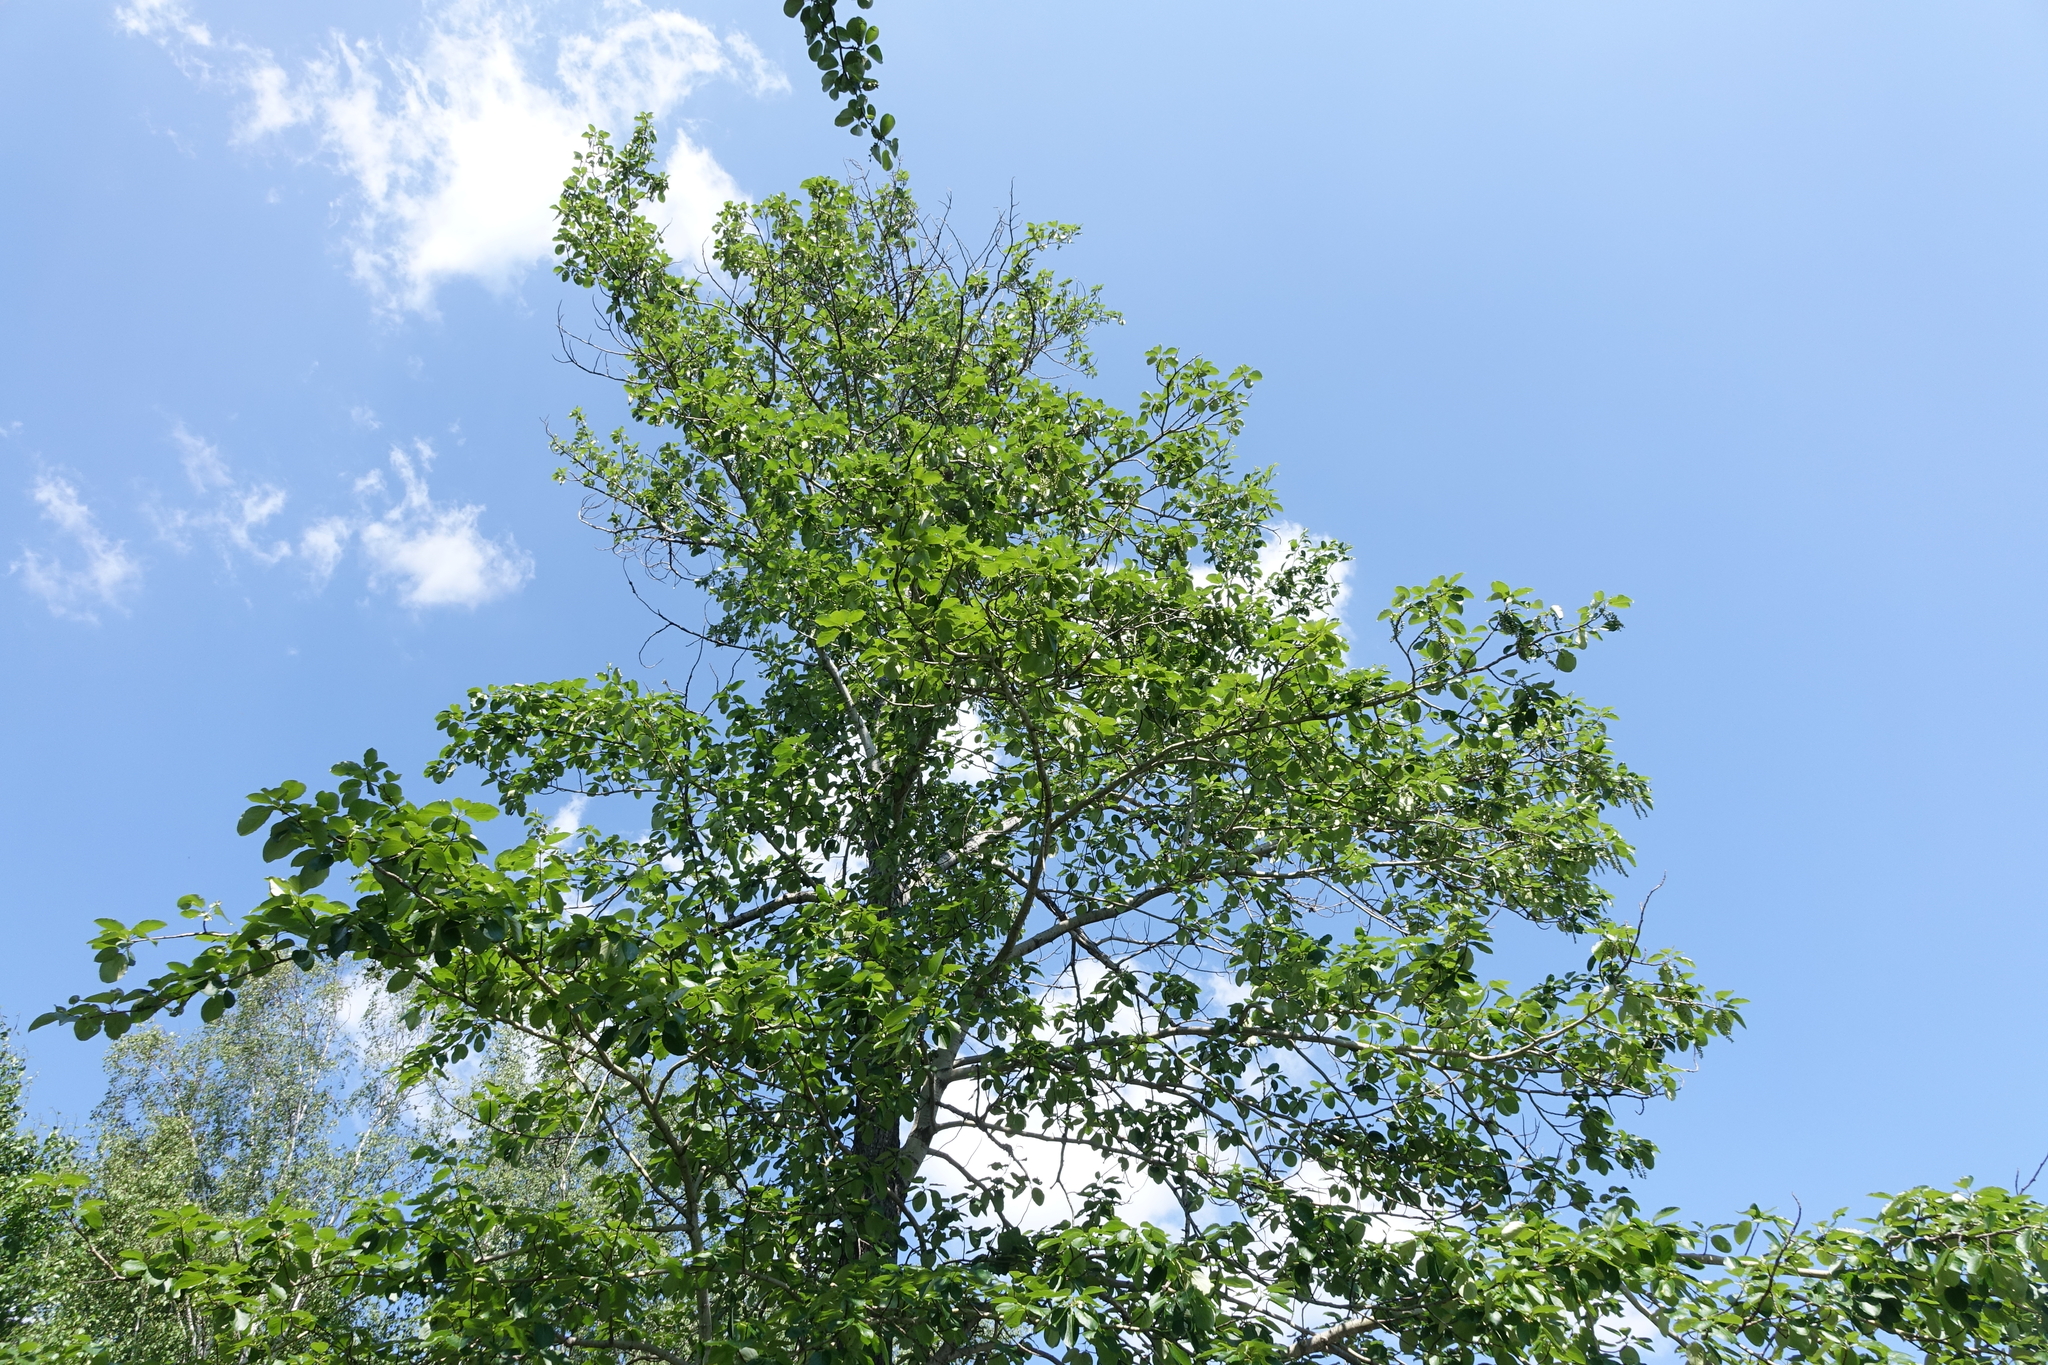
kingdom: Plantae
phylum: Tracheophyta
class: Magnoliopsida
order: Malpighiales
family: Salicaceae
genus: Populus
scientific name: Populus suaveolens
